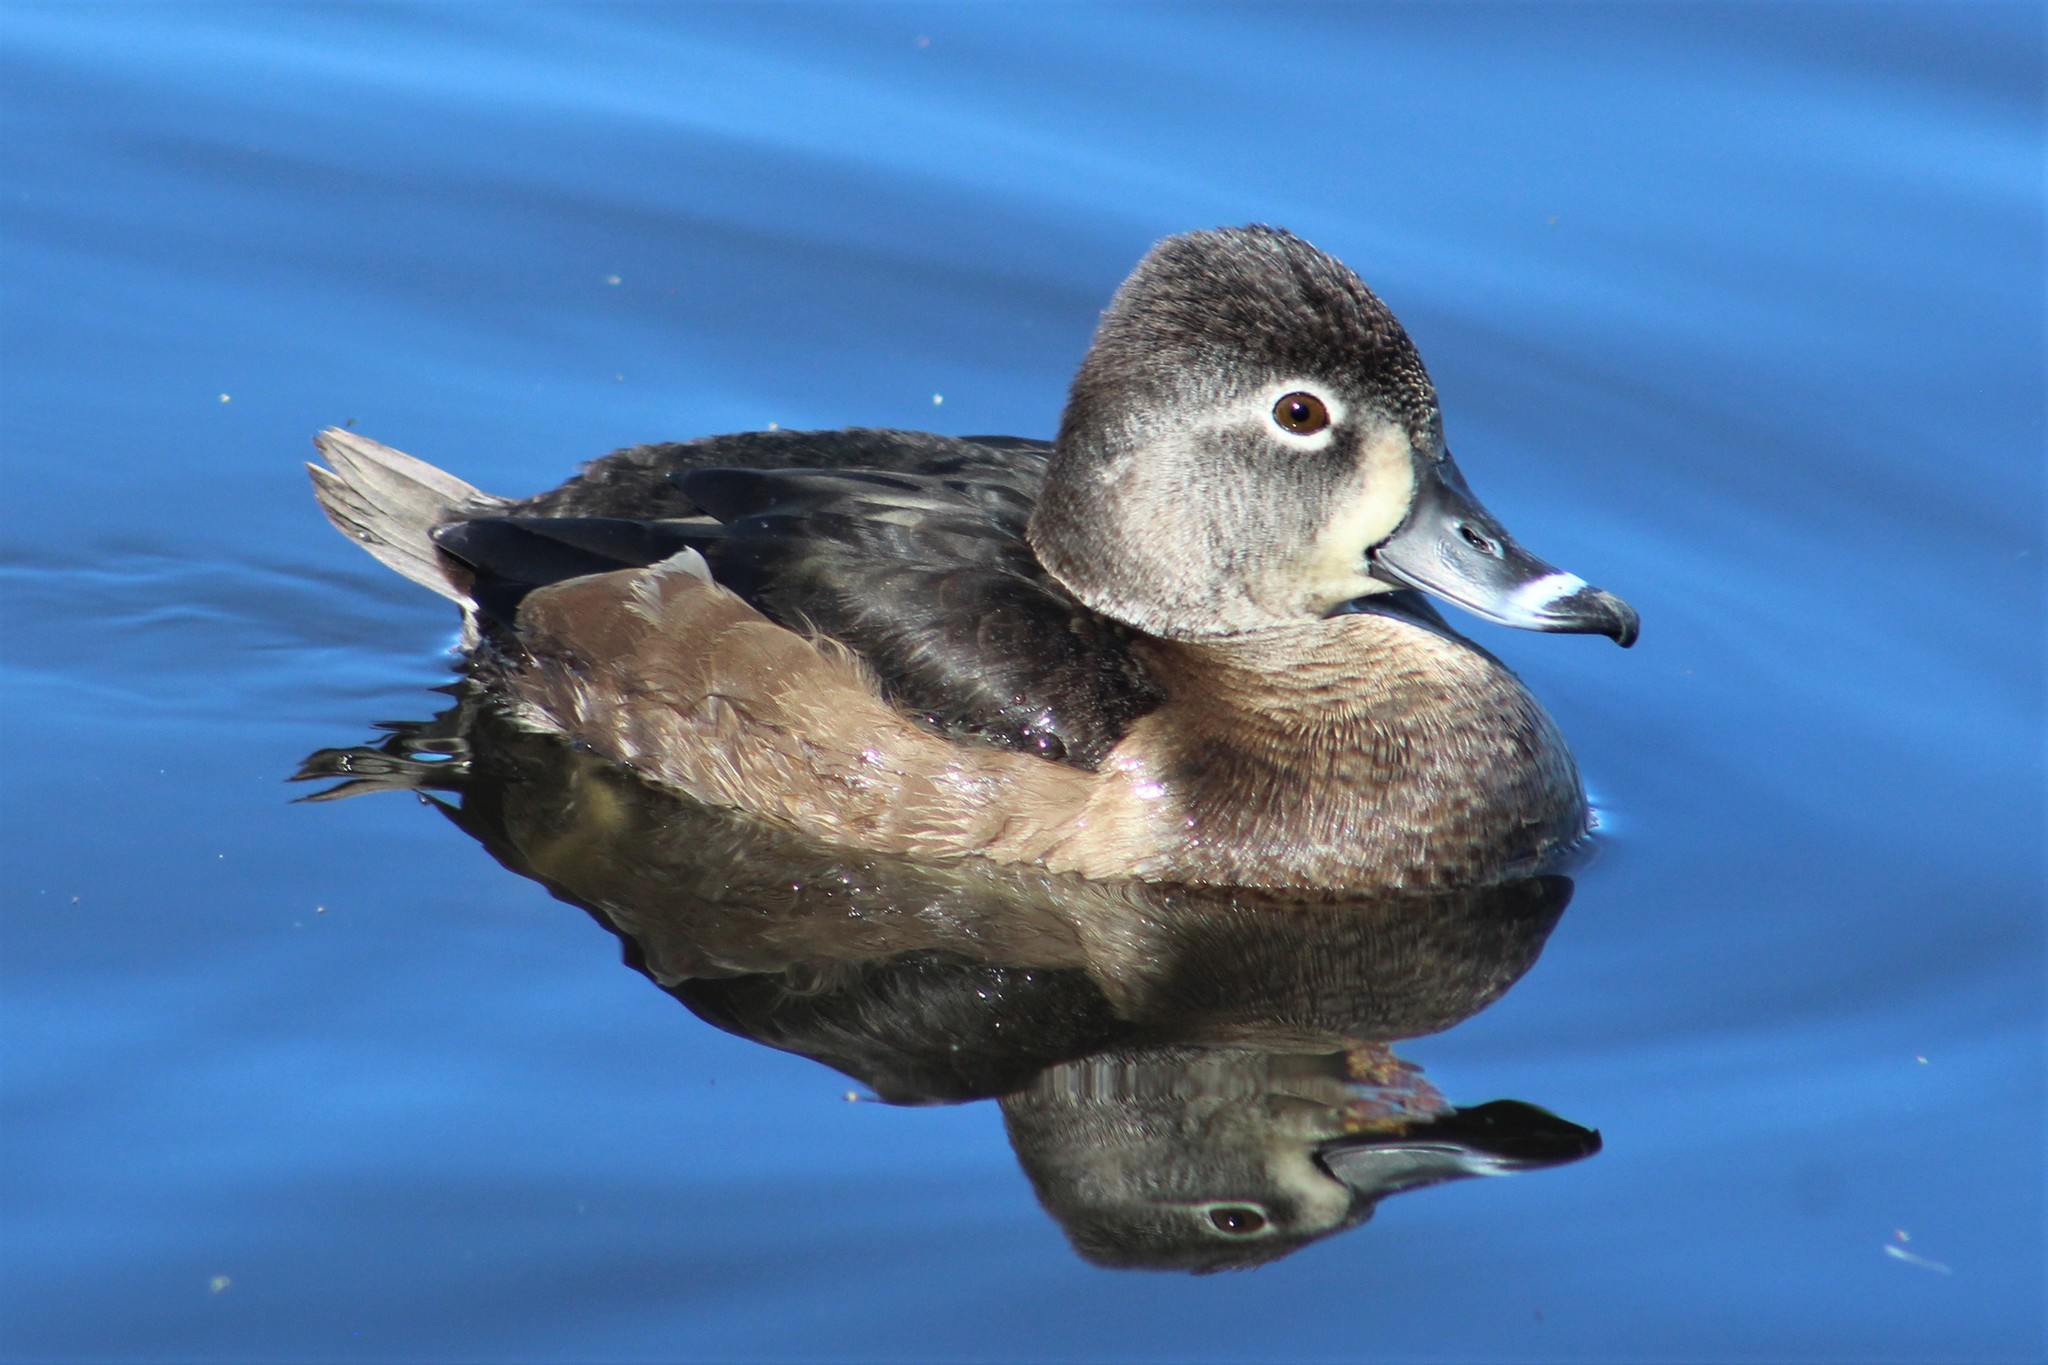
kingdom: Animalia
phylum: Chordata
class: Aves
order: Anseriformes
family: Anatidae
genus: Aythya
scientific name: Aythya collaris
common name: Ring-necked duck
